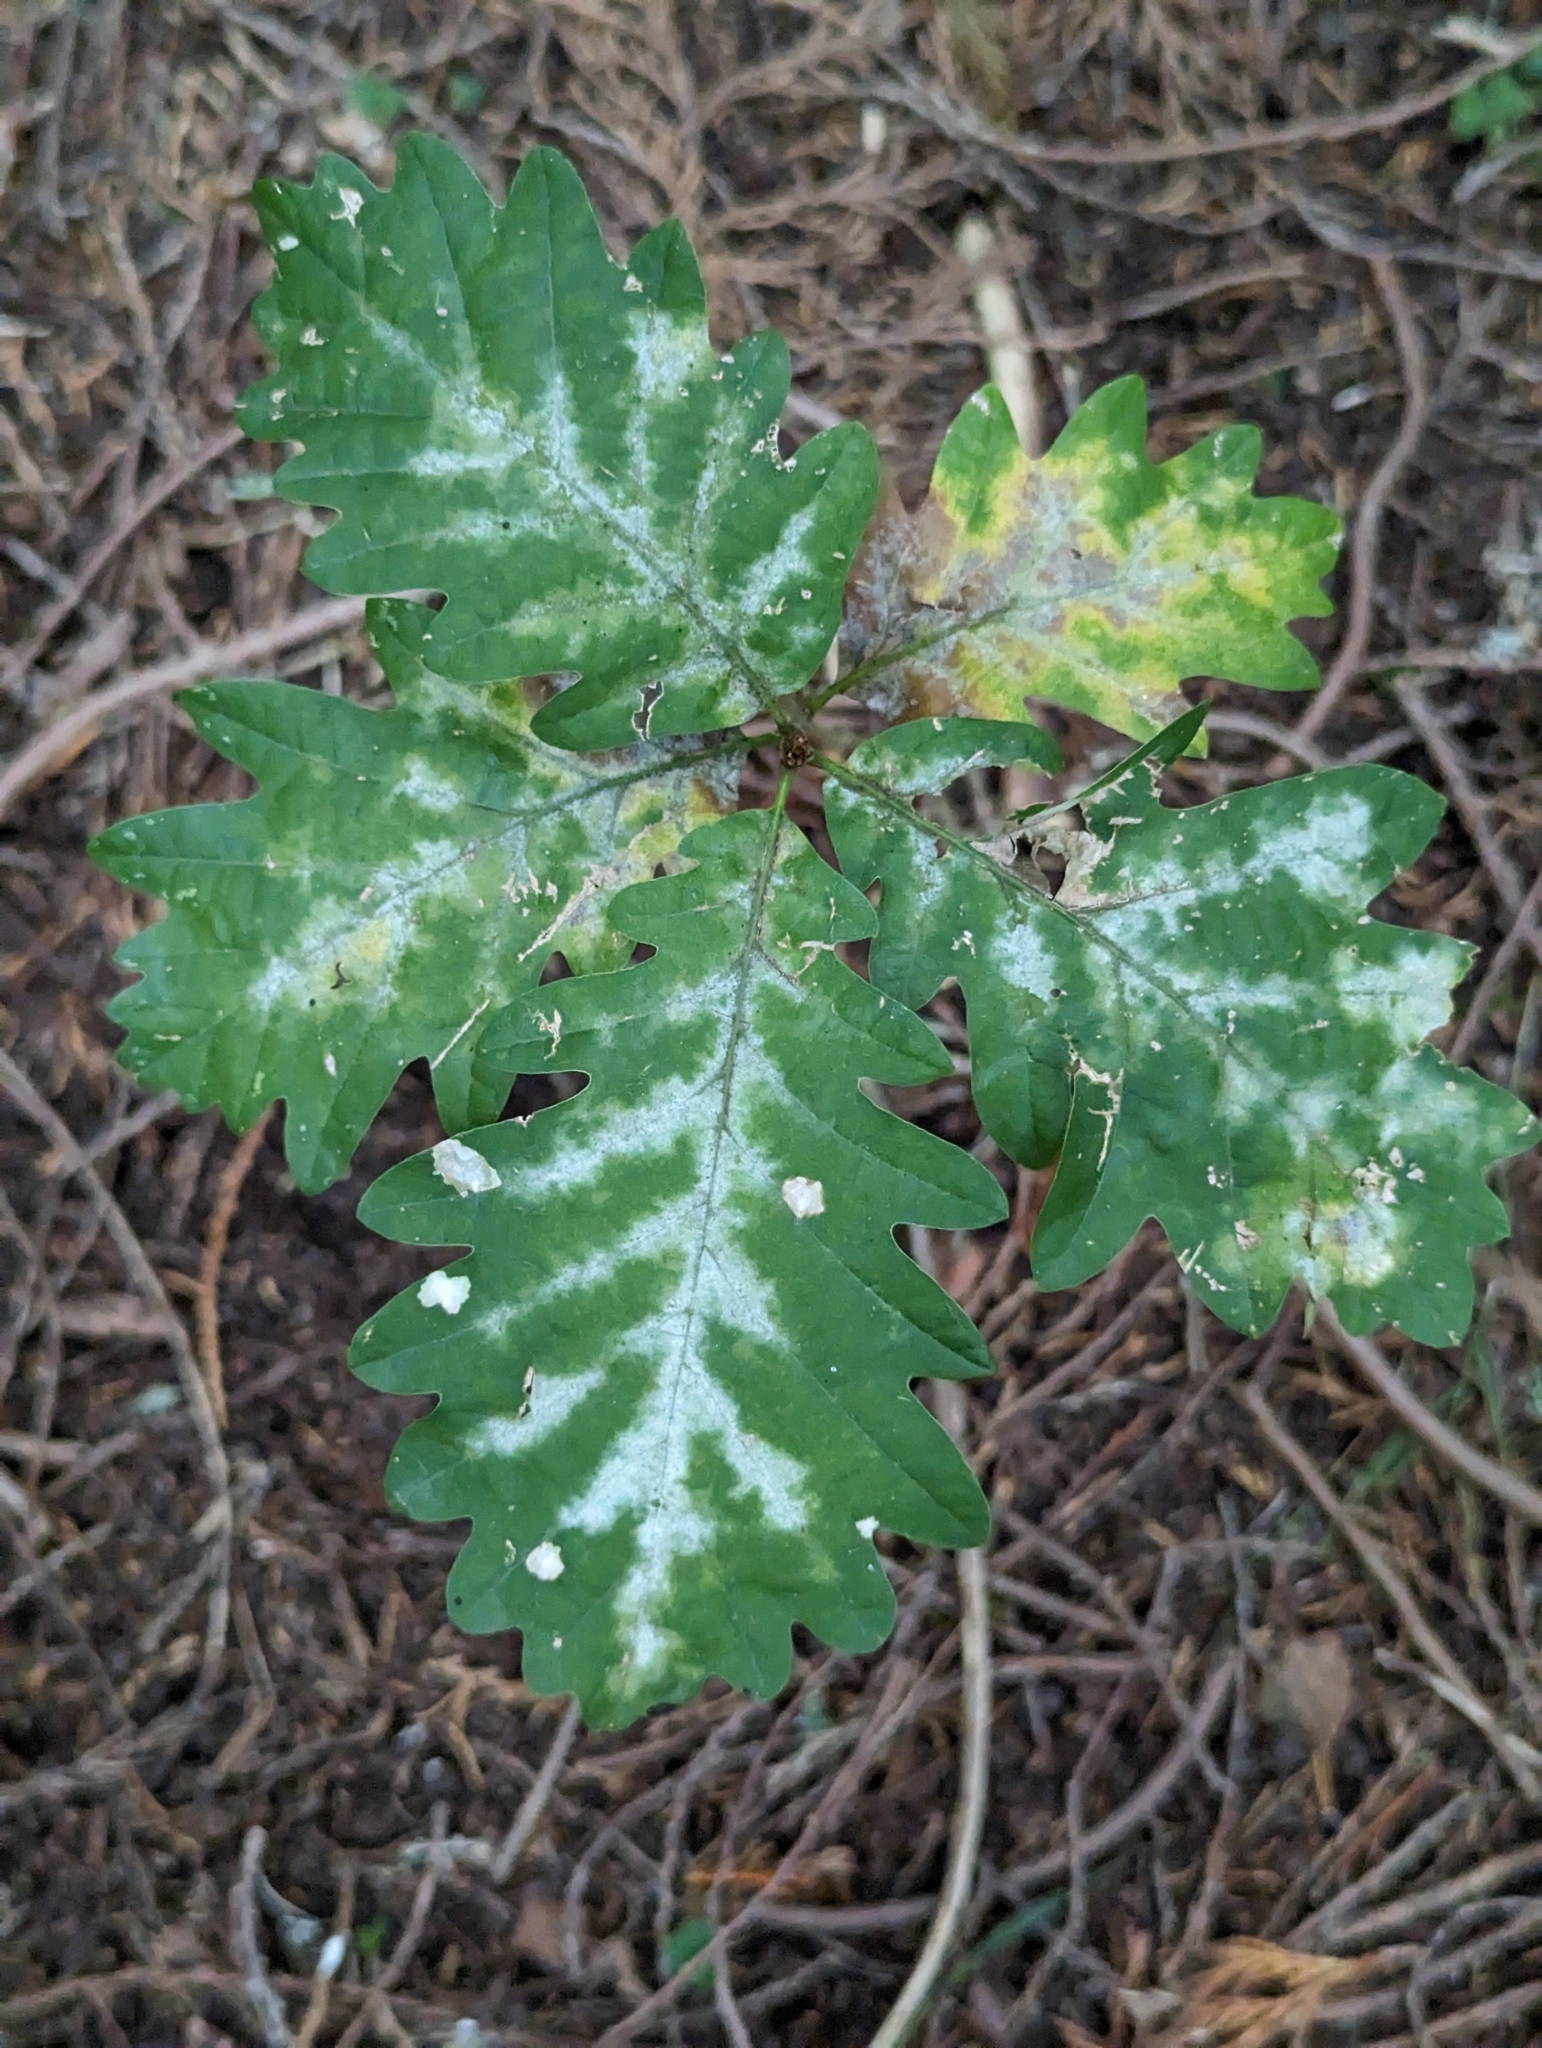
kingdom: Fungi
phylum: Ascomycota
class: Leotiomycetes
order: Helotiales
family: Erysiphaceae
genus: Erysiphe
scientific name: Erysiphe alphitoides
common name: Oak mildew
